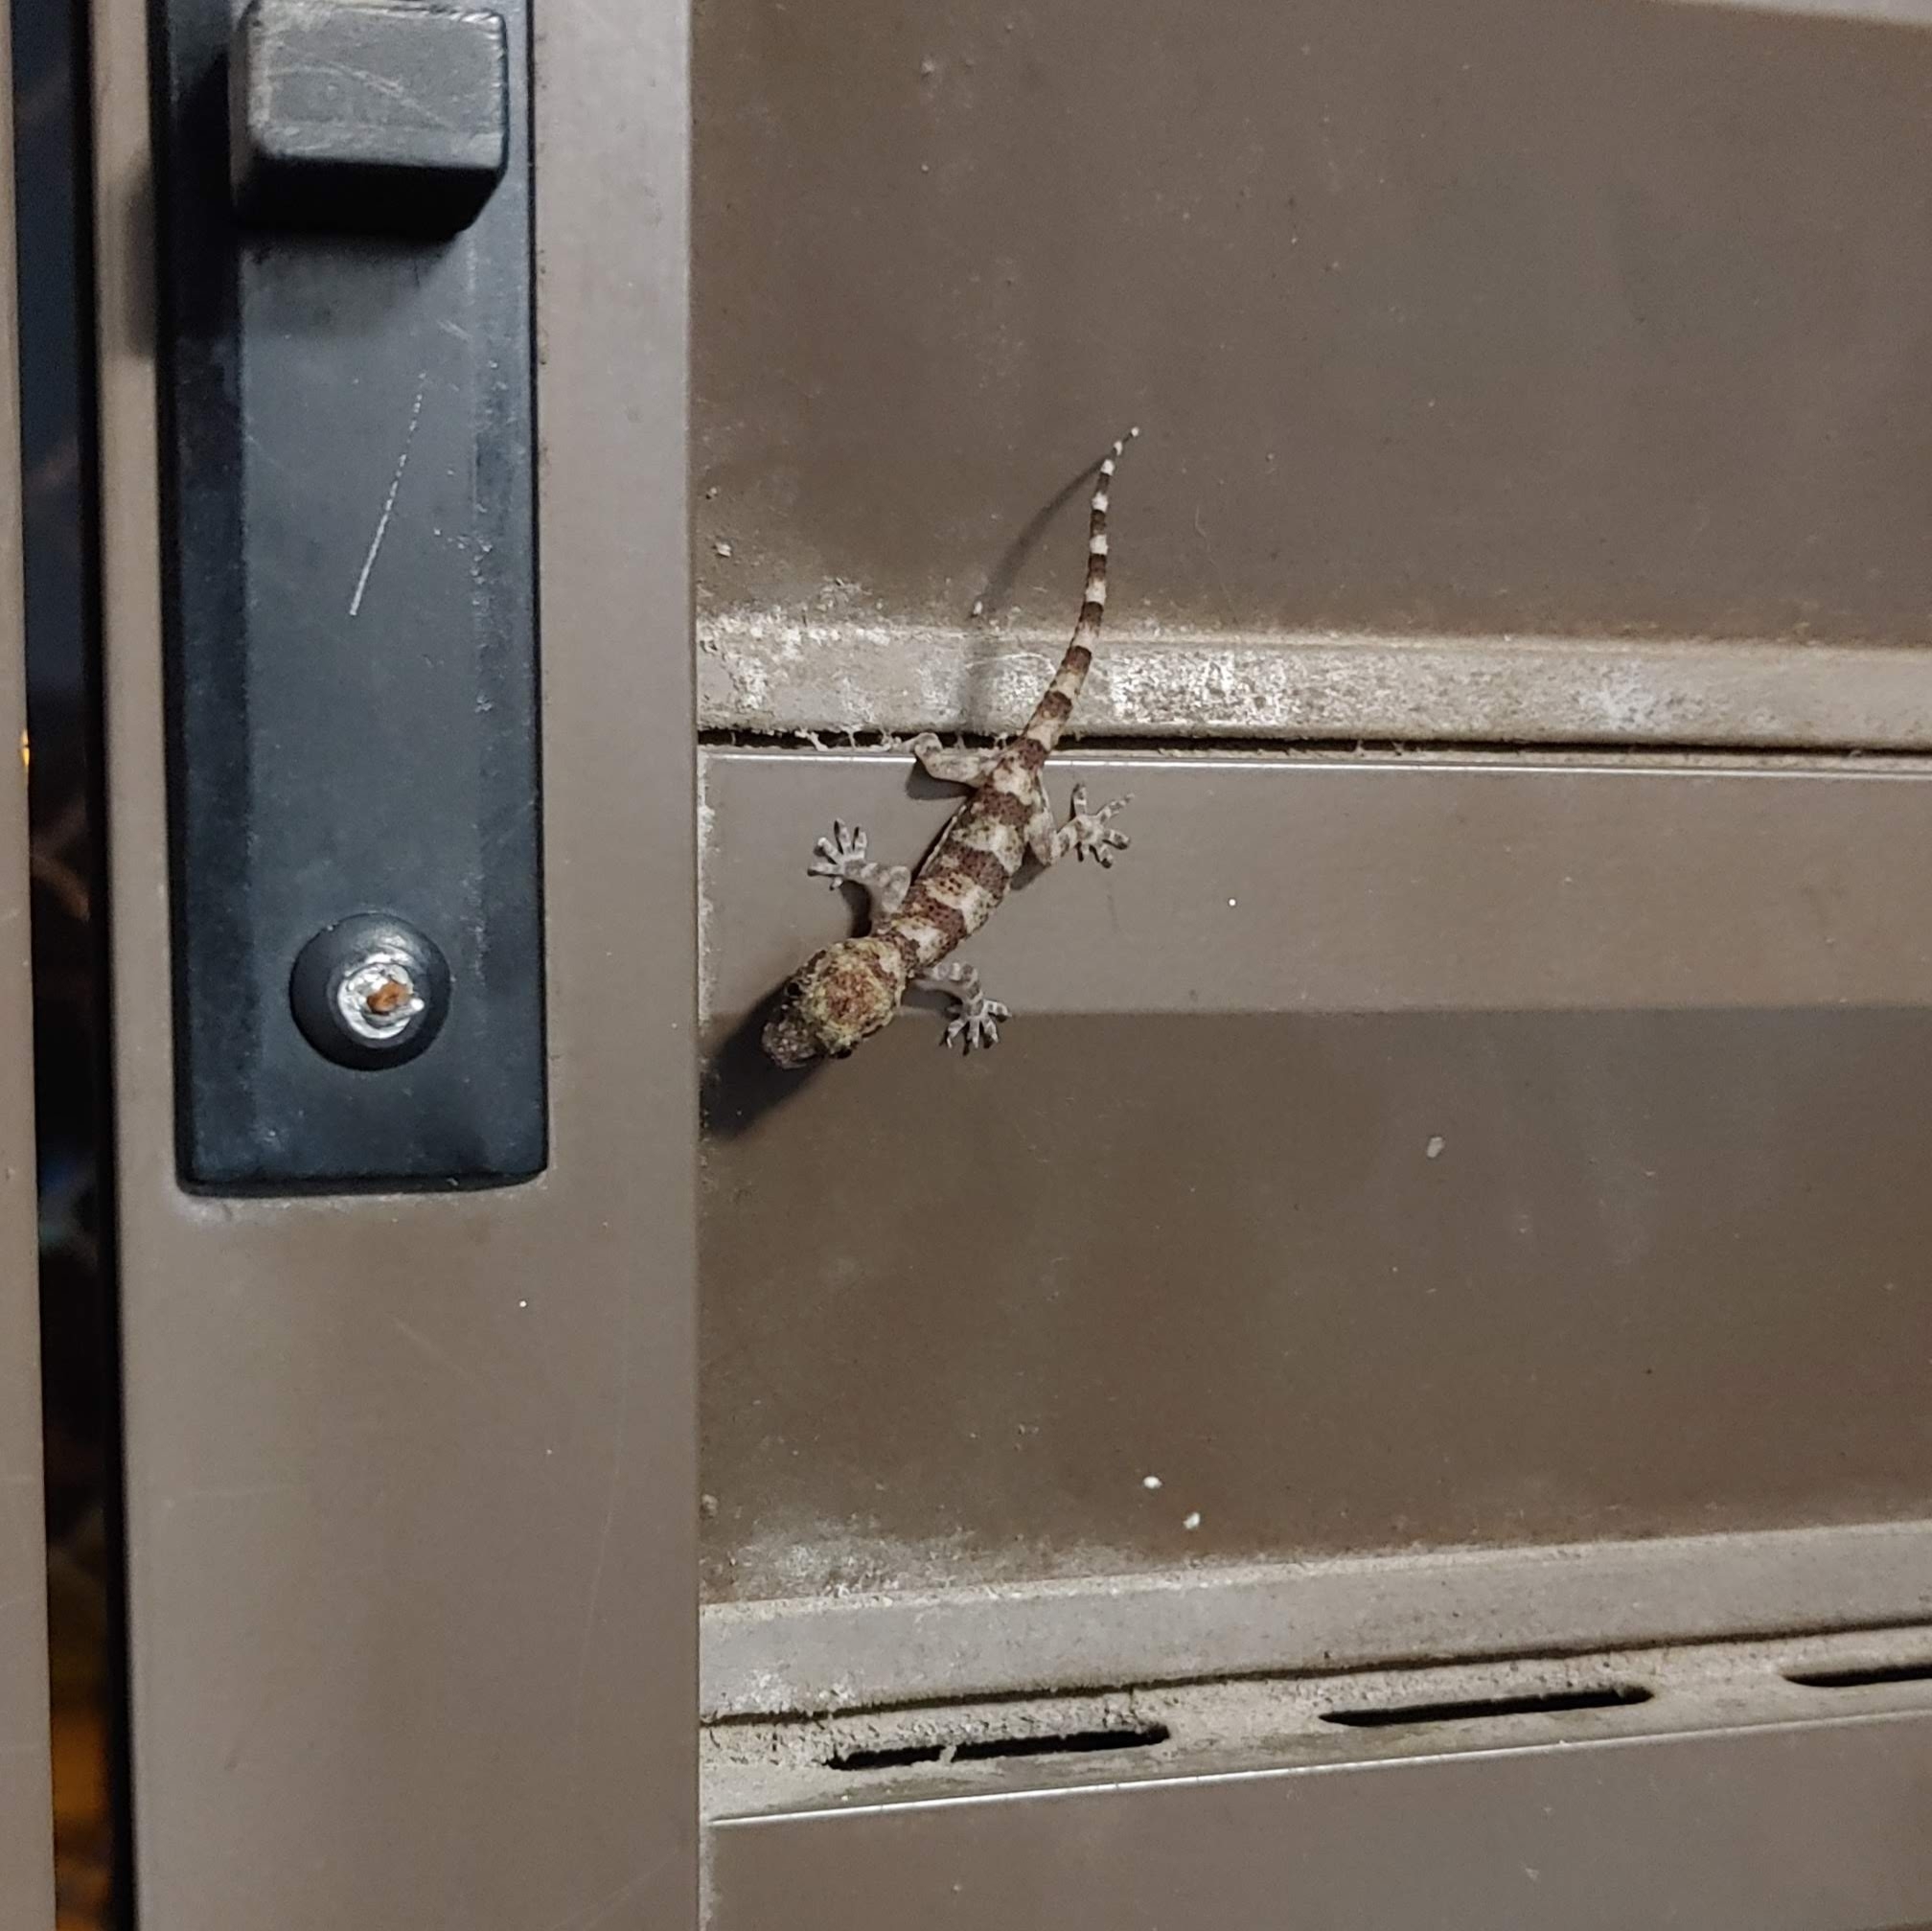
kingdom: Animalia
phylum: Chordata
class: Squamata
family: Gekkonidae
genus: Hemidactylus
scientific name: Hemidactylus mabouia
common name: House gecko
